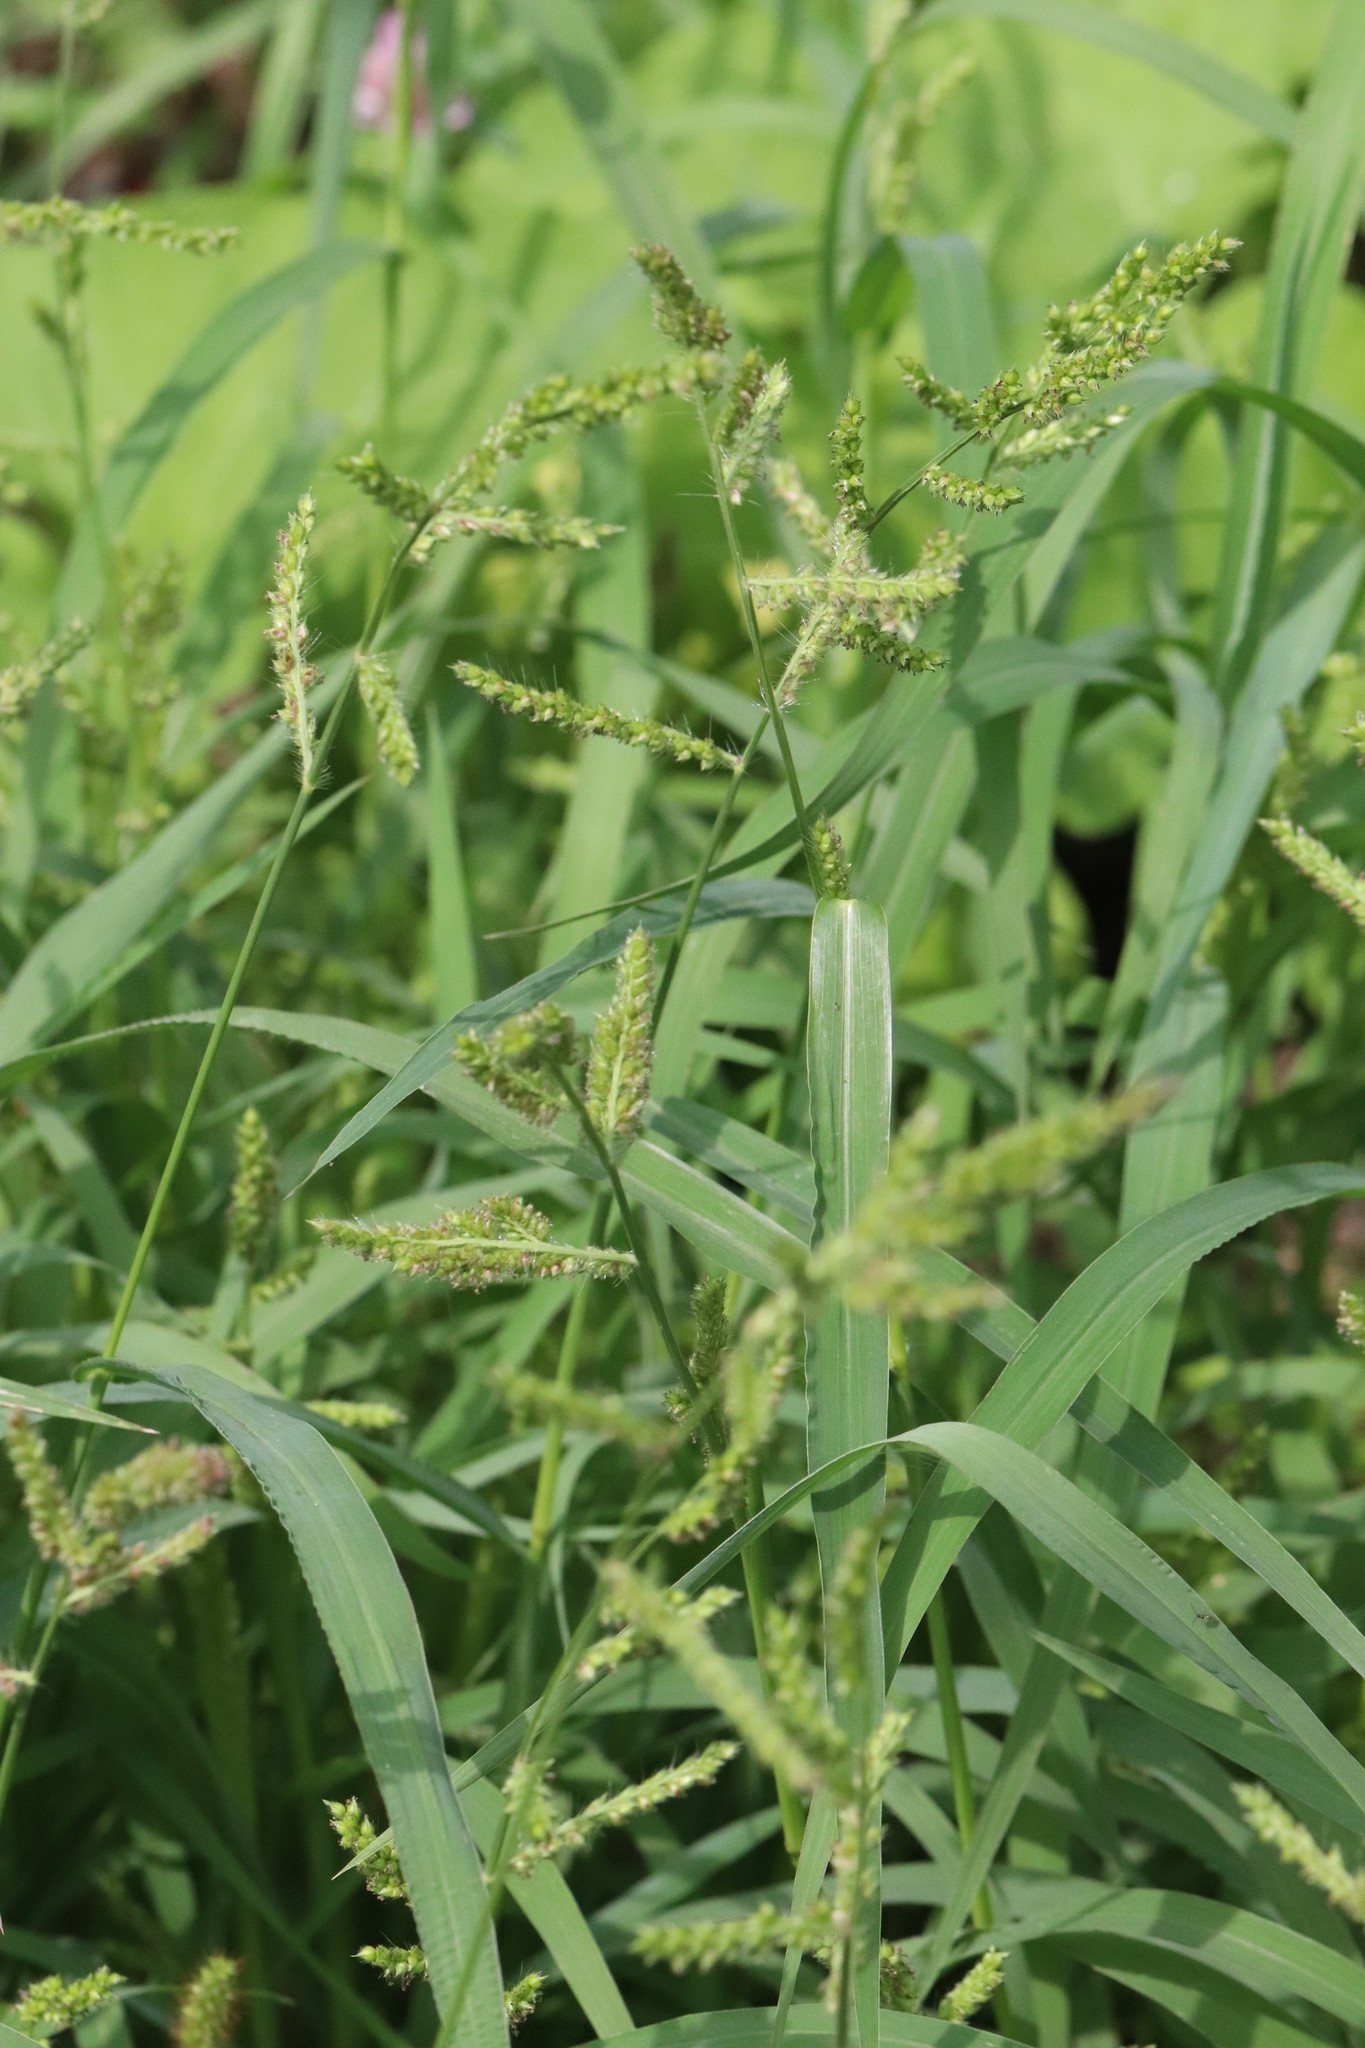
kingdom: Plantae
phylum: Tracheophyta
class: Liliopsida
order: Poales
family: Poaceae
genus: Echinochloa
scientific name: Echinochloa crus-galli
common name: Cockspur
